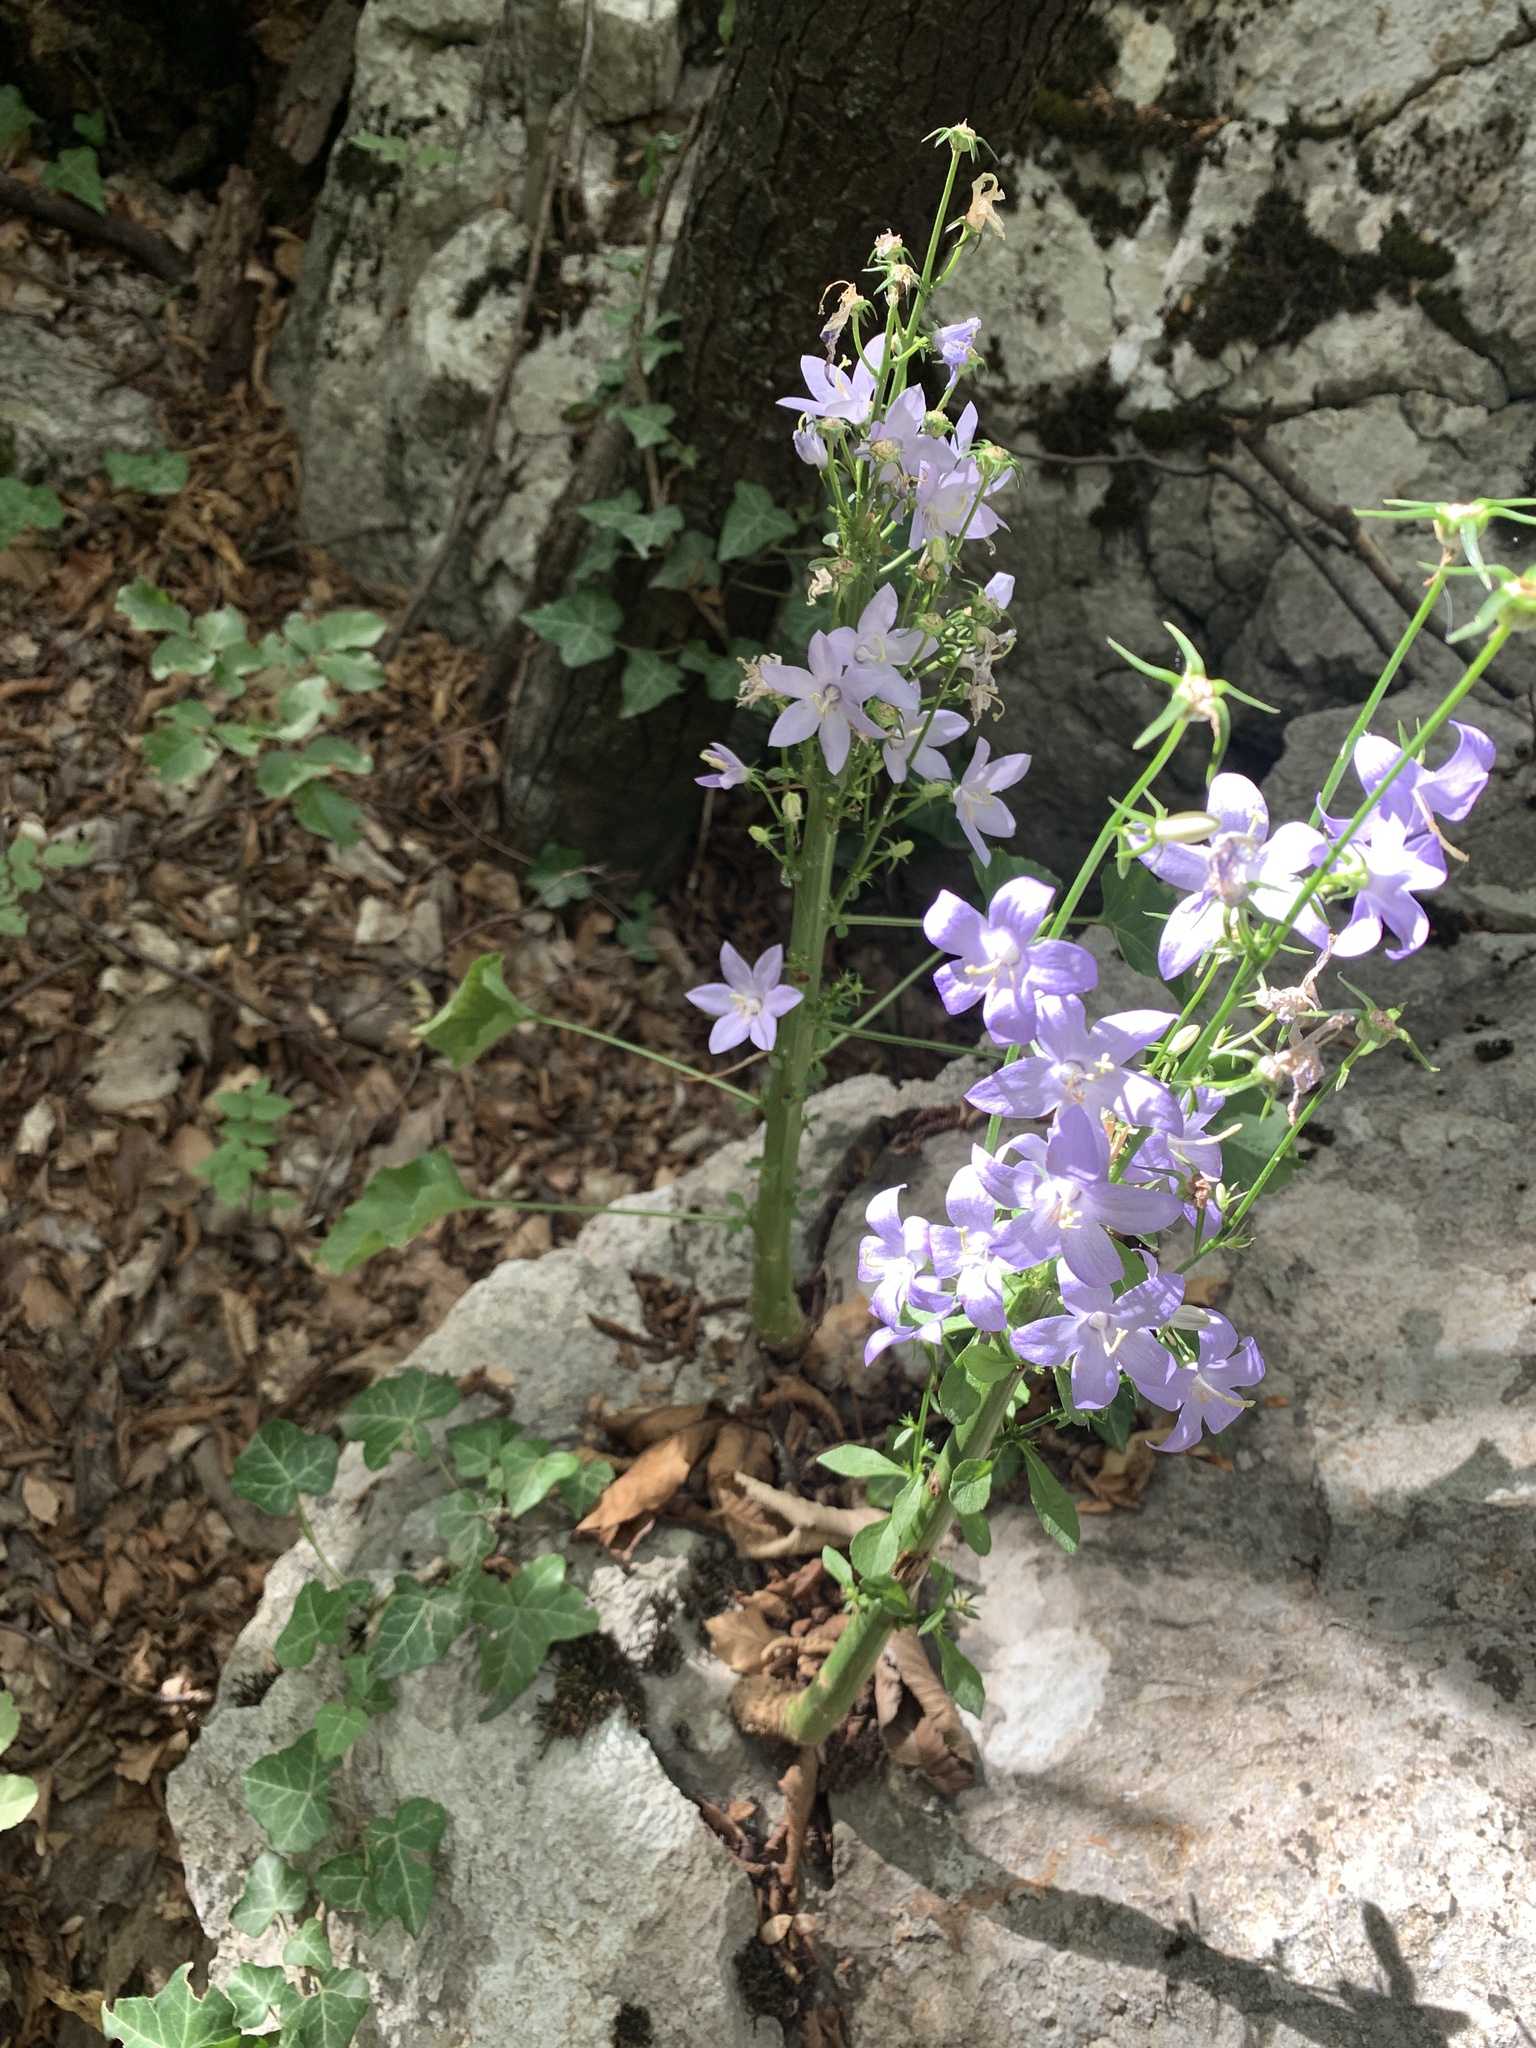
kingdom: Plantae
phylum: Tracheophyta
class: Magnoliopsida
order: Asterales
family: Campanulaceae
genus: Campanula
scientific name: Campanula pyramidalis
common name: Chimney bellflower
